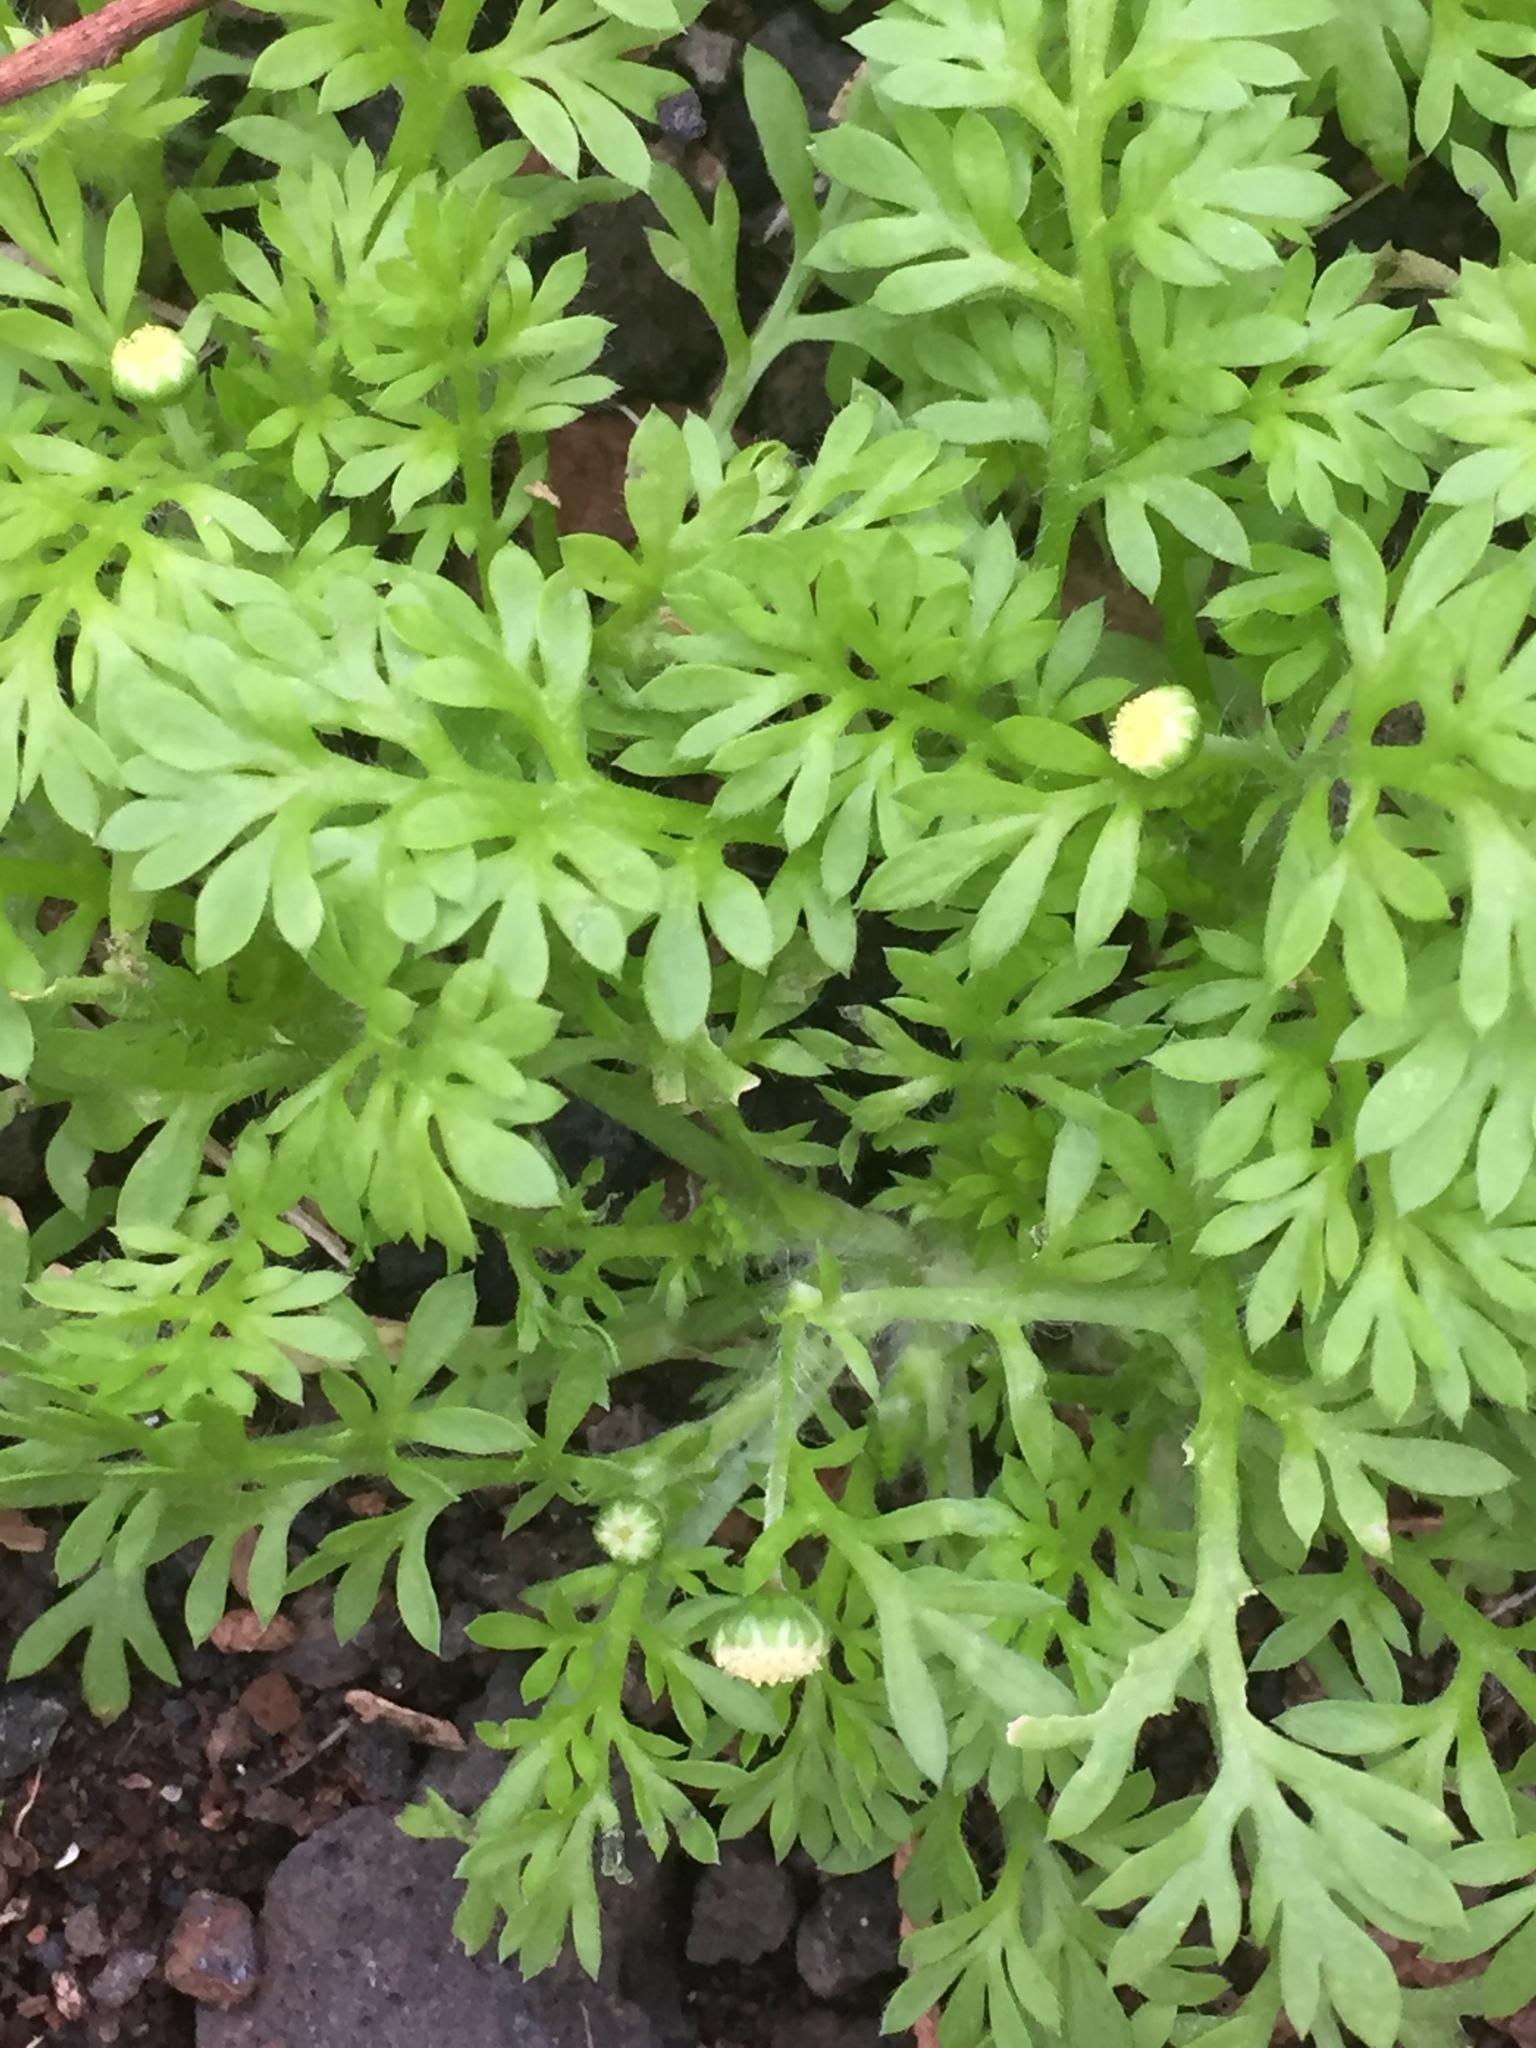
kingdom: Plantae
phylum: Tracheophyta
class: Magnoliopsida
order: Asterales
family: Asteraceae
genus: Cotula
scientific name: Cotula australis
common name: Australian waterbuttons
